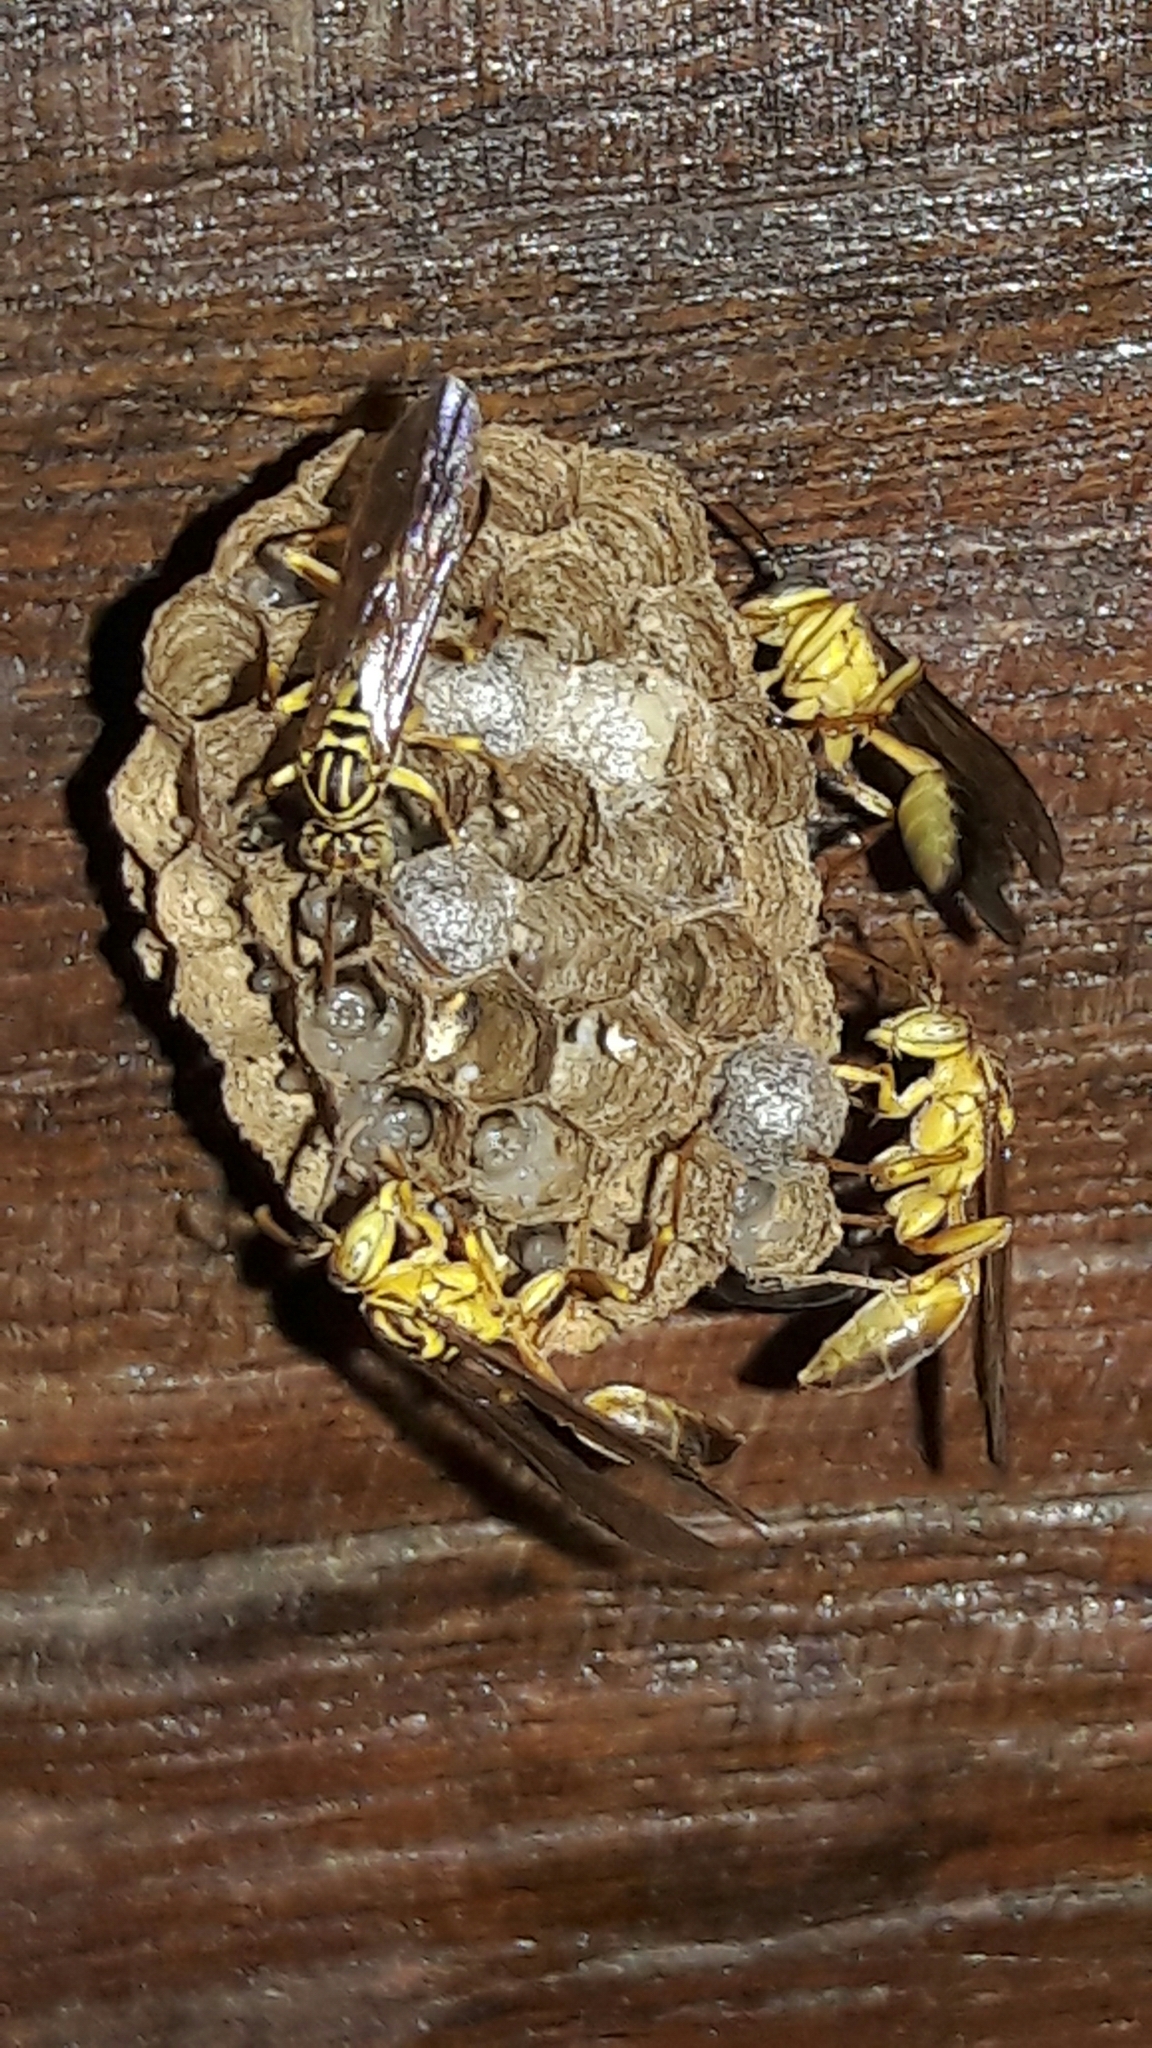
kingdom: Animalia
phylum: Arthropoda
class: Insecta
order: Hymenoptera
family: Vespidae
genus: Mischocyttarus
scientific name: Mischocyttarus cerberus
